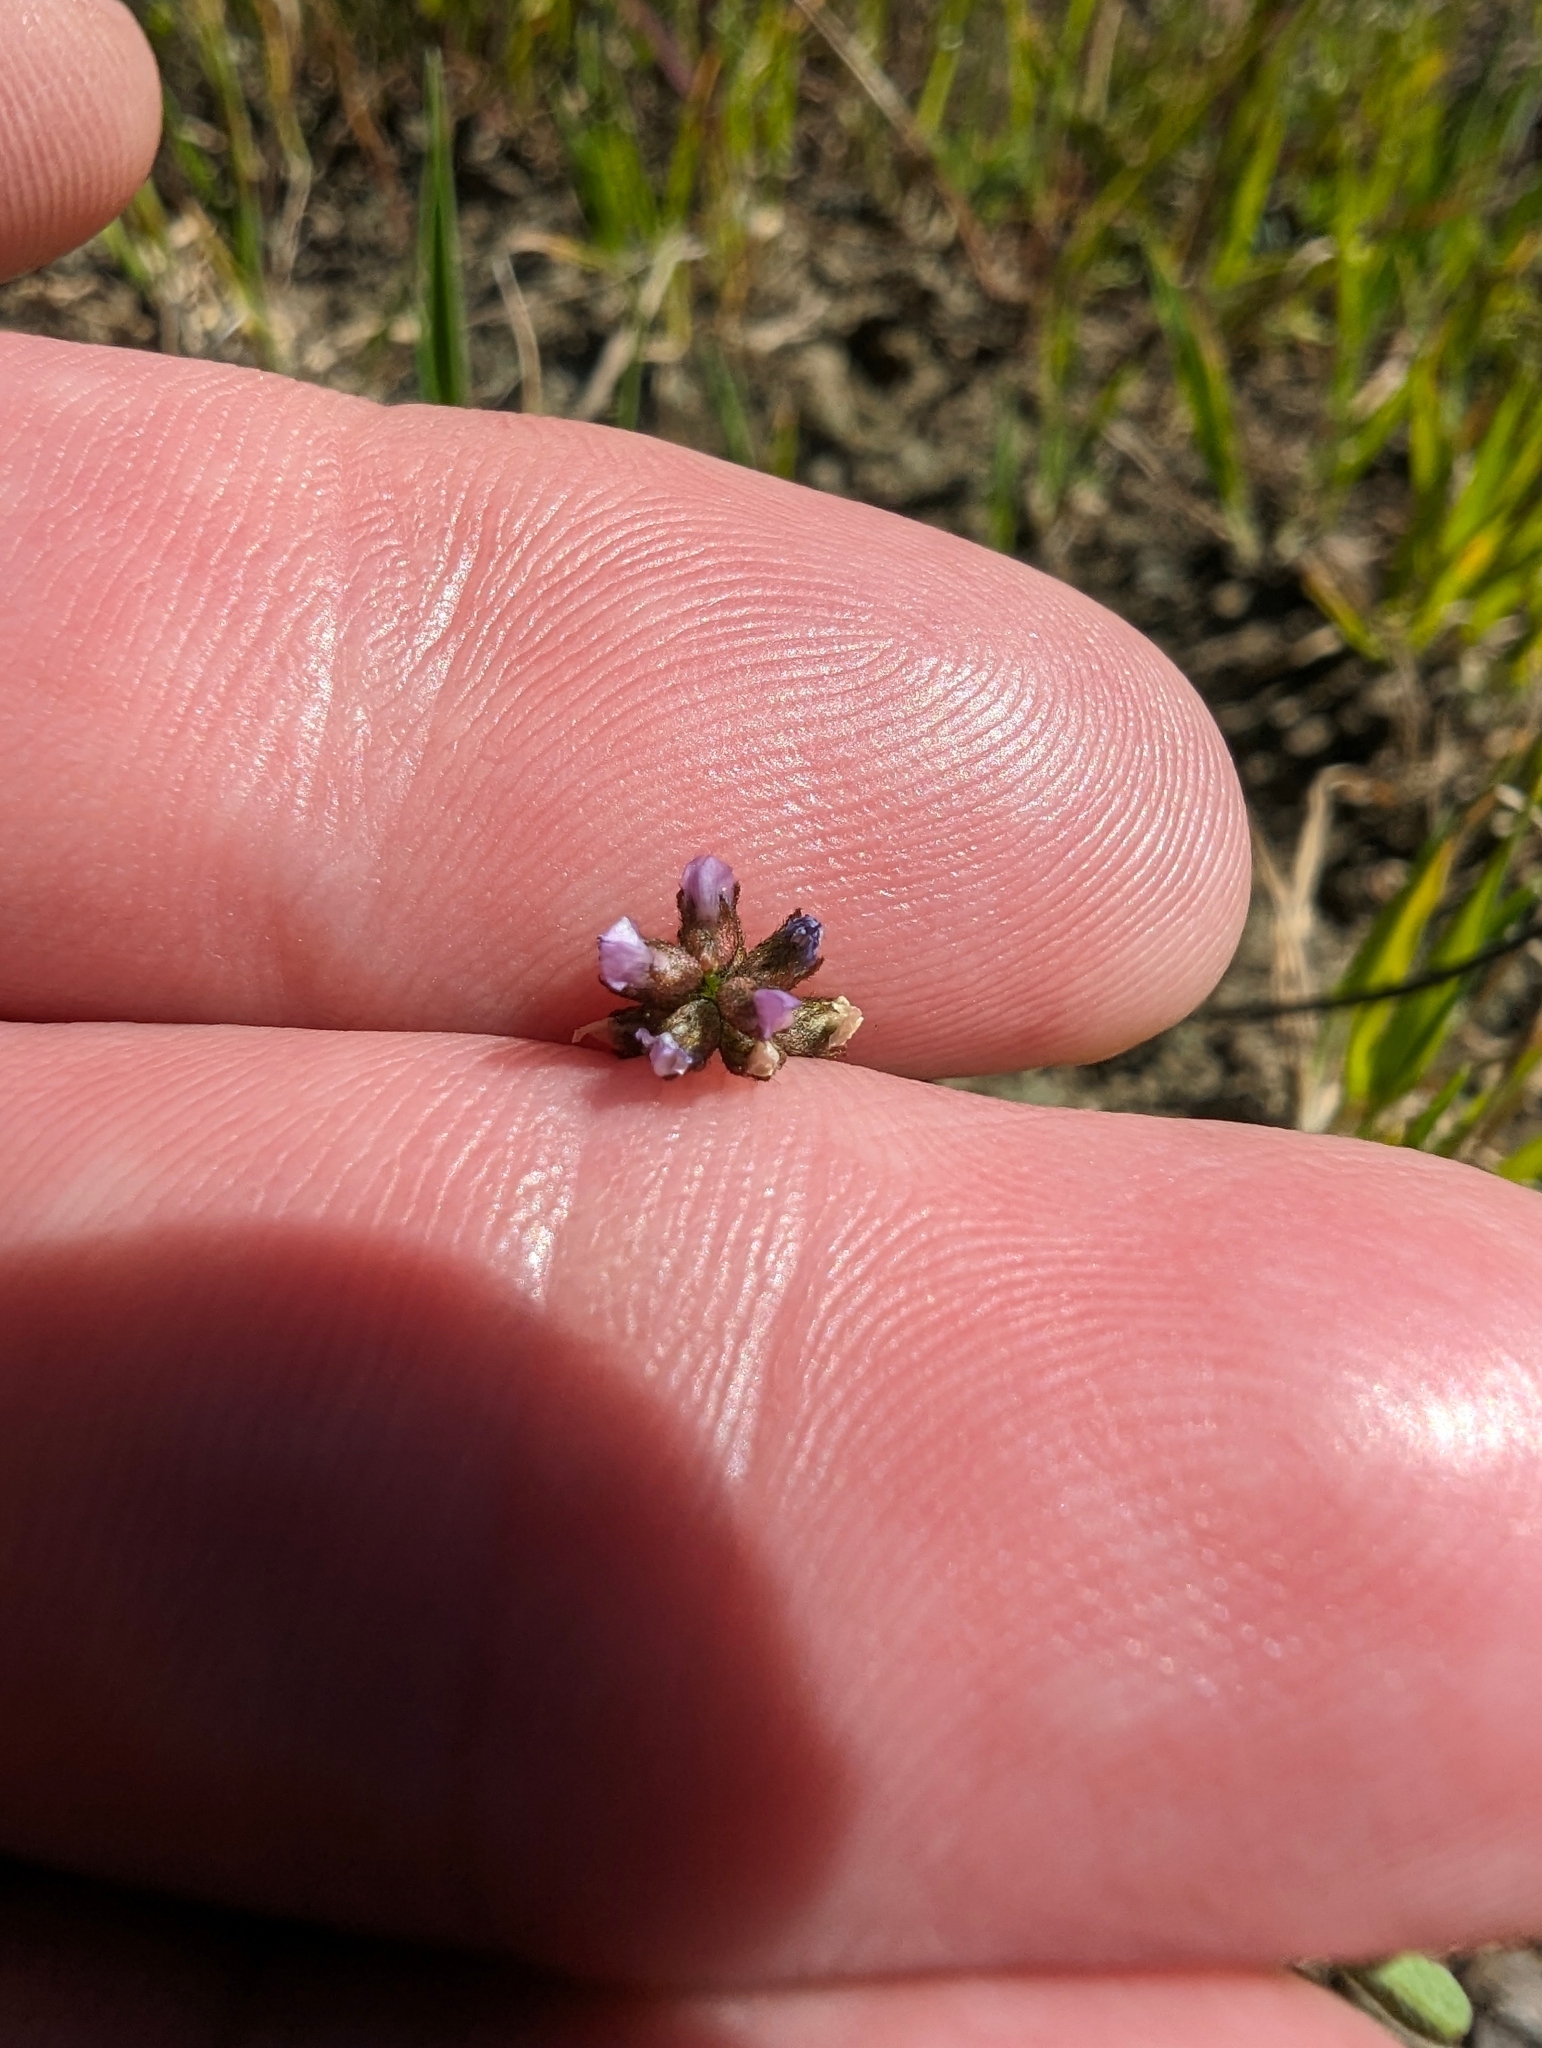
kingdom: Plantae
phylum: Tracheophyta
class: Magnoliopsida
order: Fabales
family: Fabaceae
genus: Astragalus
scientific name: Astragalus gambelianus
